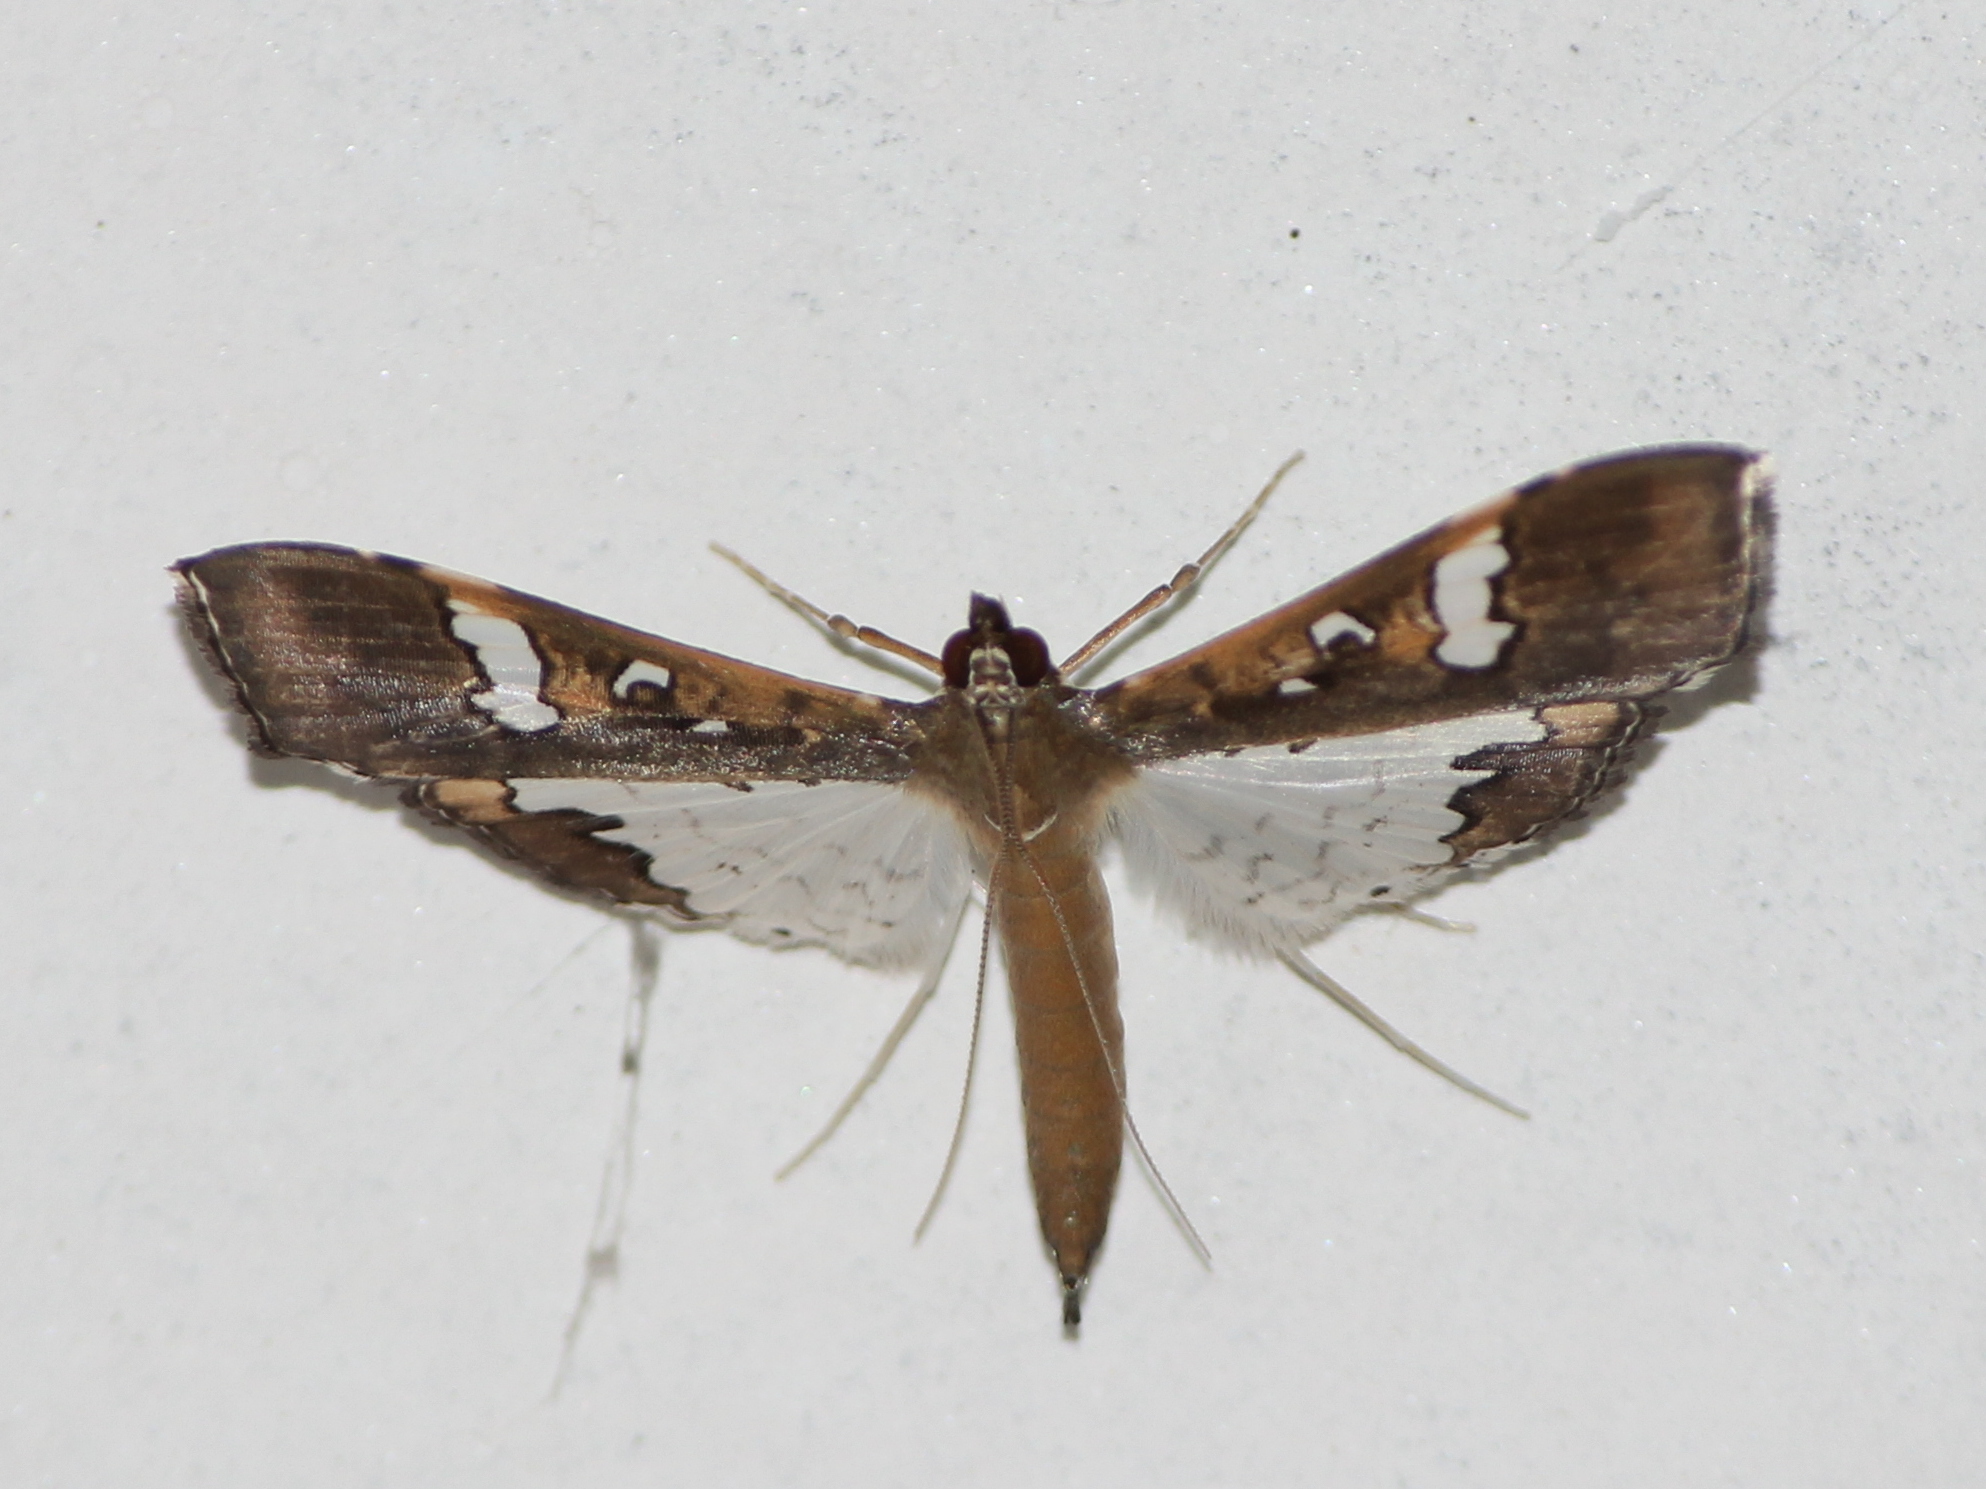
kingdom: Animalia
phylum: Arthropoda
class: Insecta
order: Lepidoptera
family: Crambidae
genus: Maruca
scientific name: Maruca vitrata
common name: Maruca pod borer
